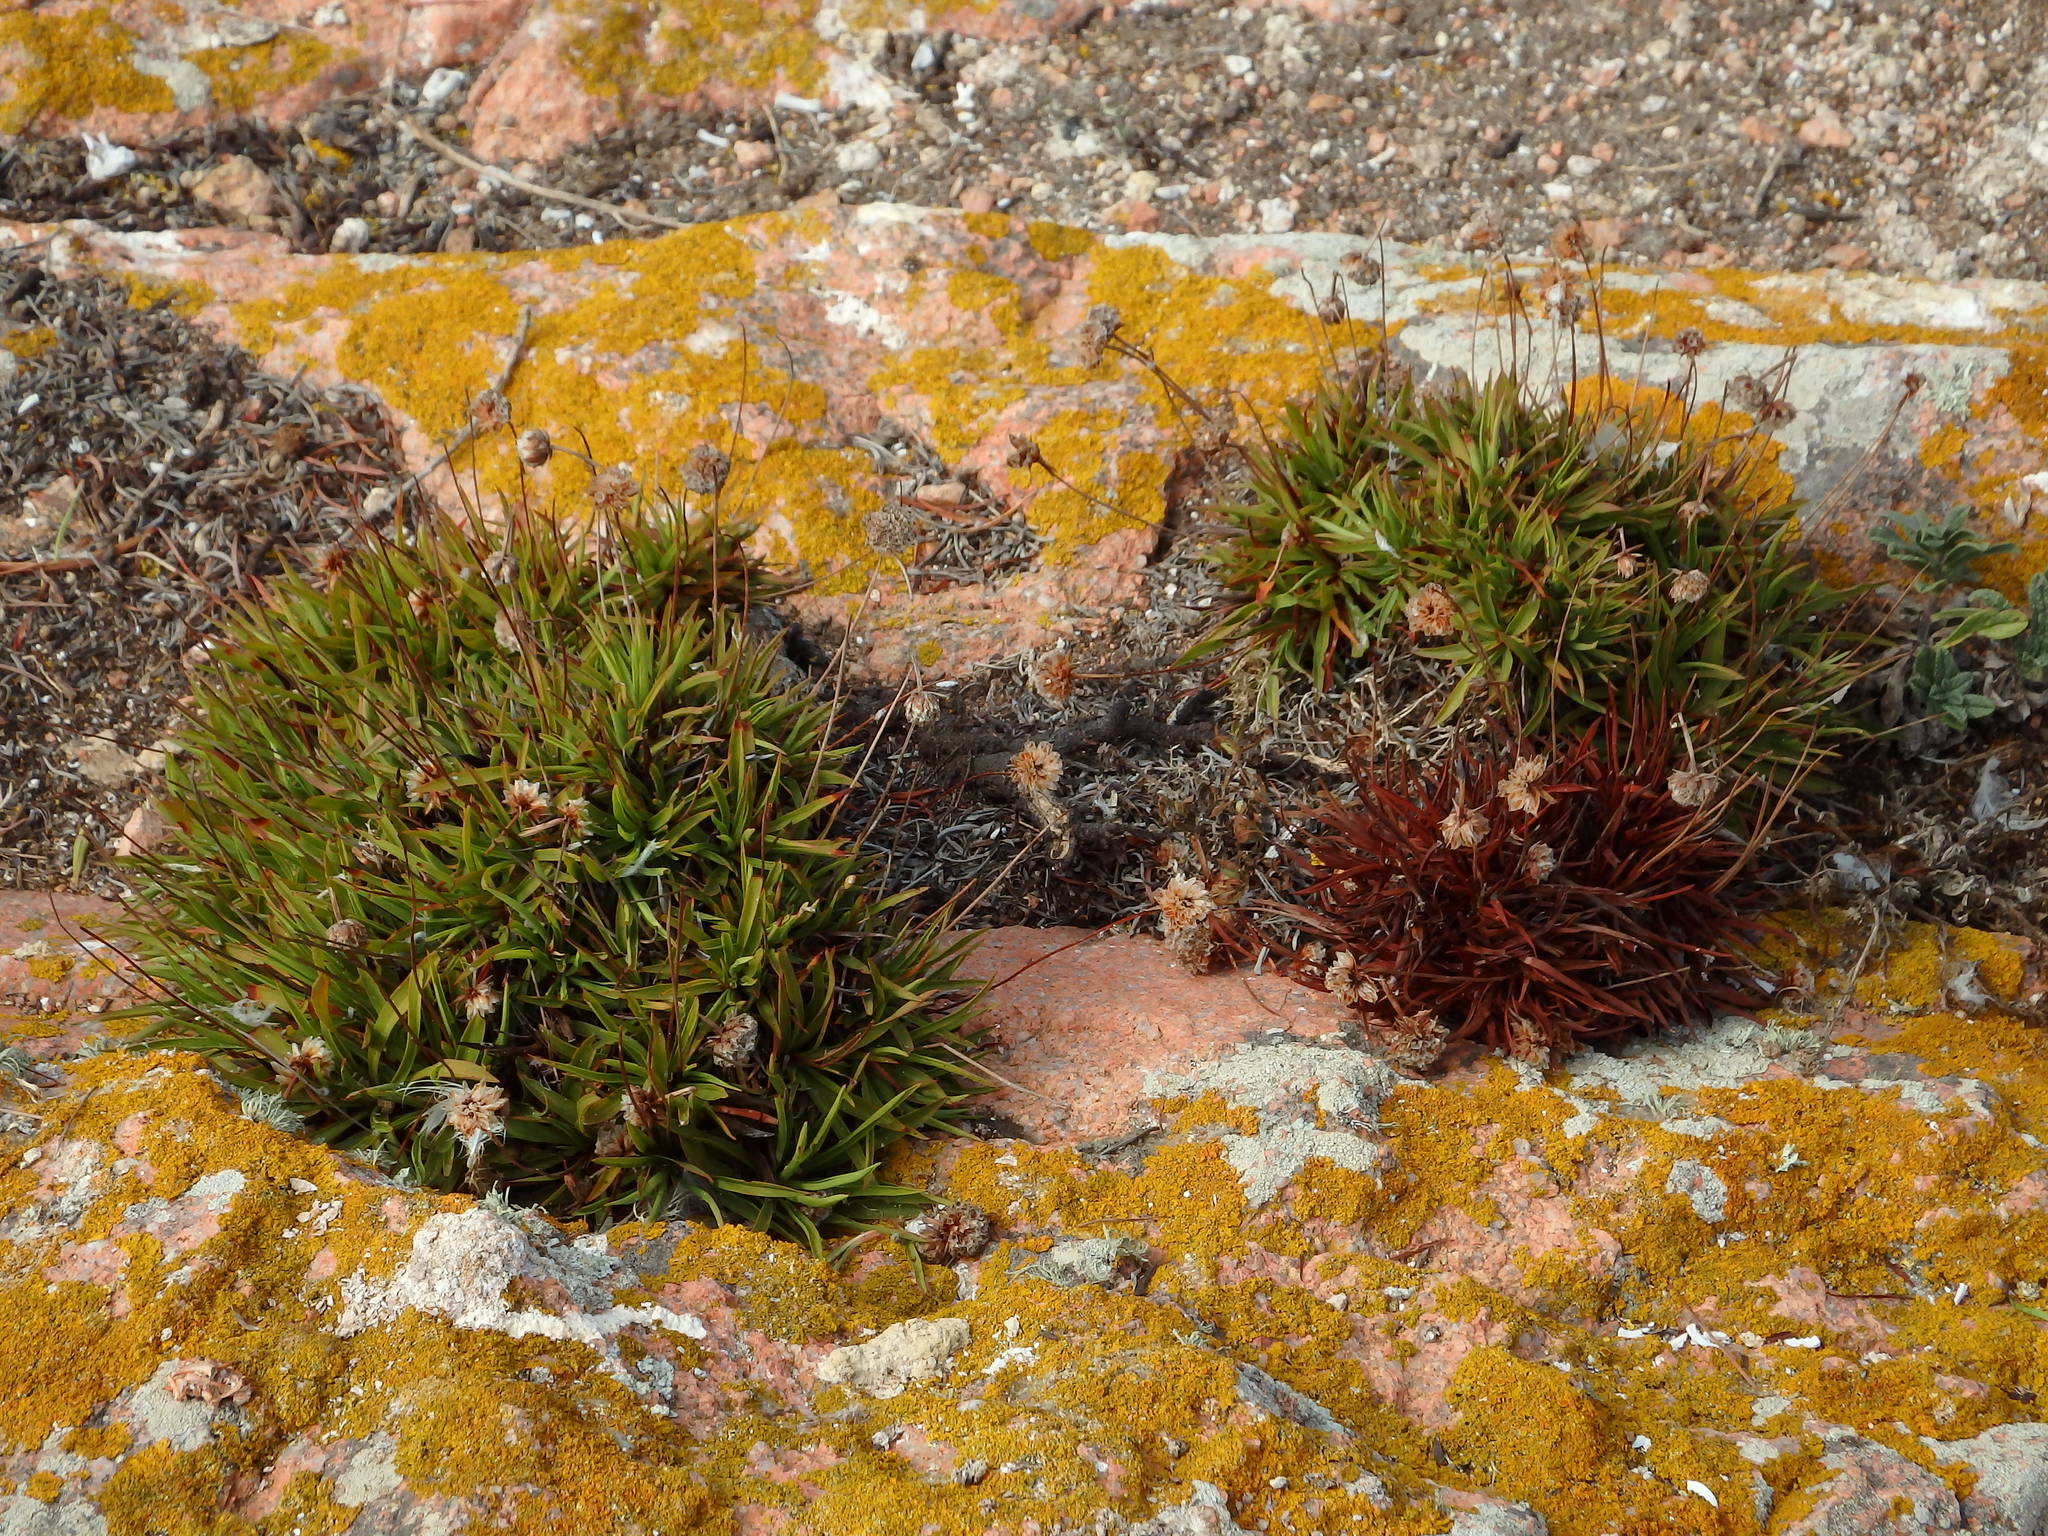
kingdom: Plantae
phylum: Tracheophyta
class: Magnoliopsida
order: Caryophyllales
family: Plumbaginaceae
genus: Armeria
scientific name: Armeria berlengensis
